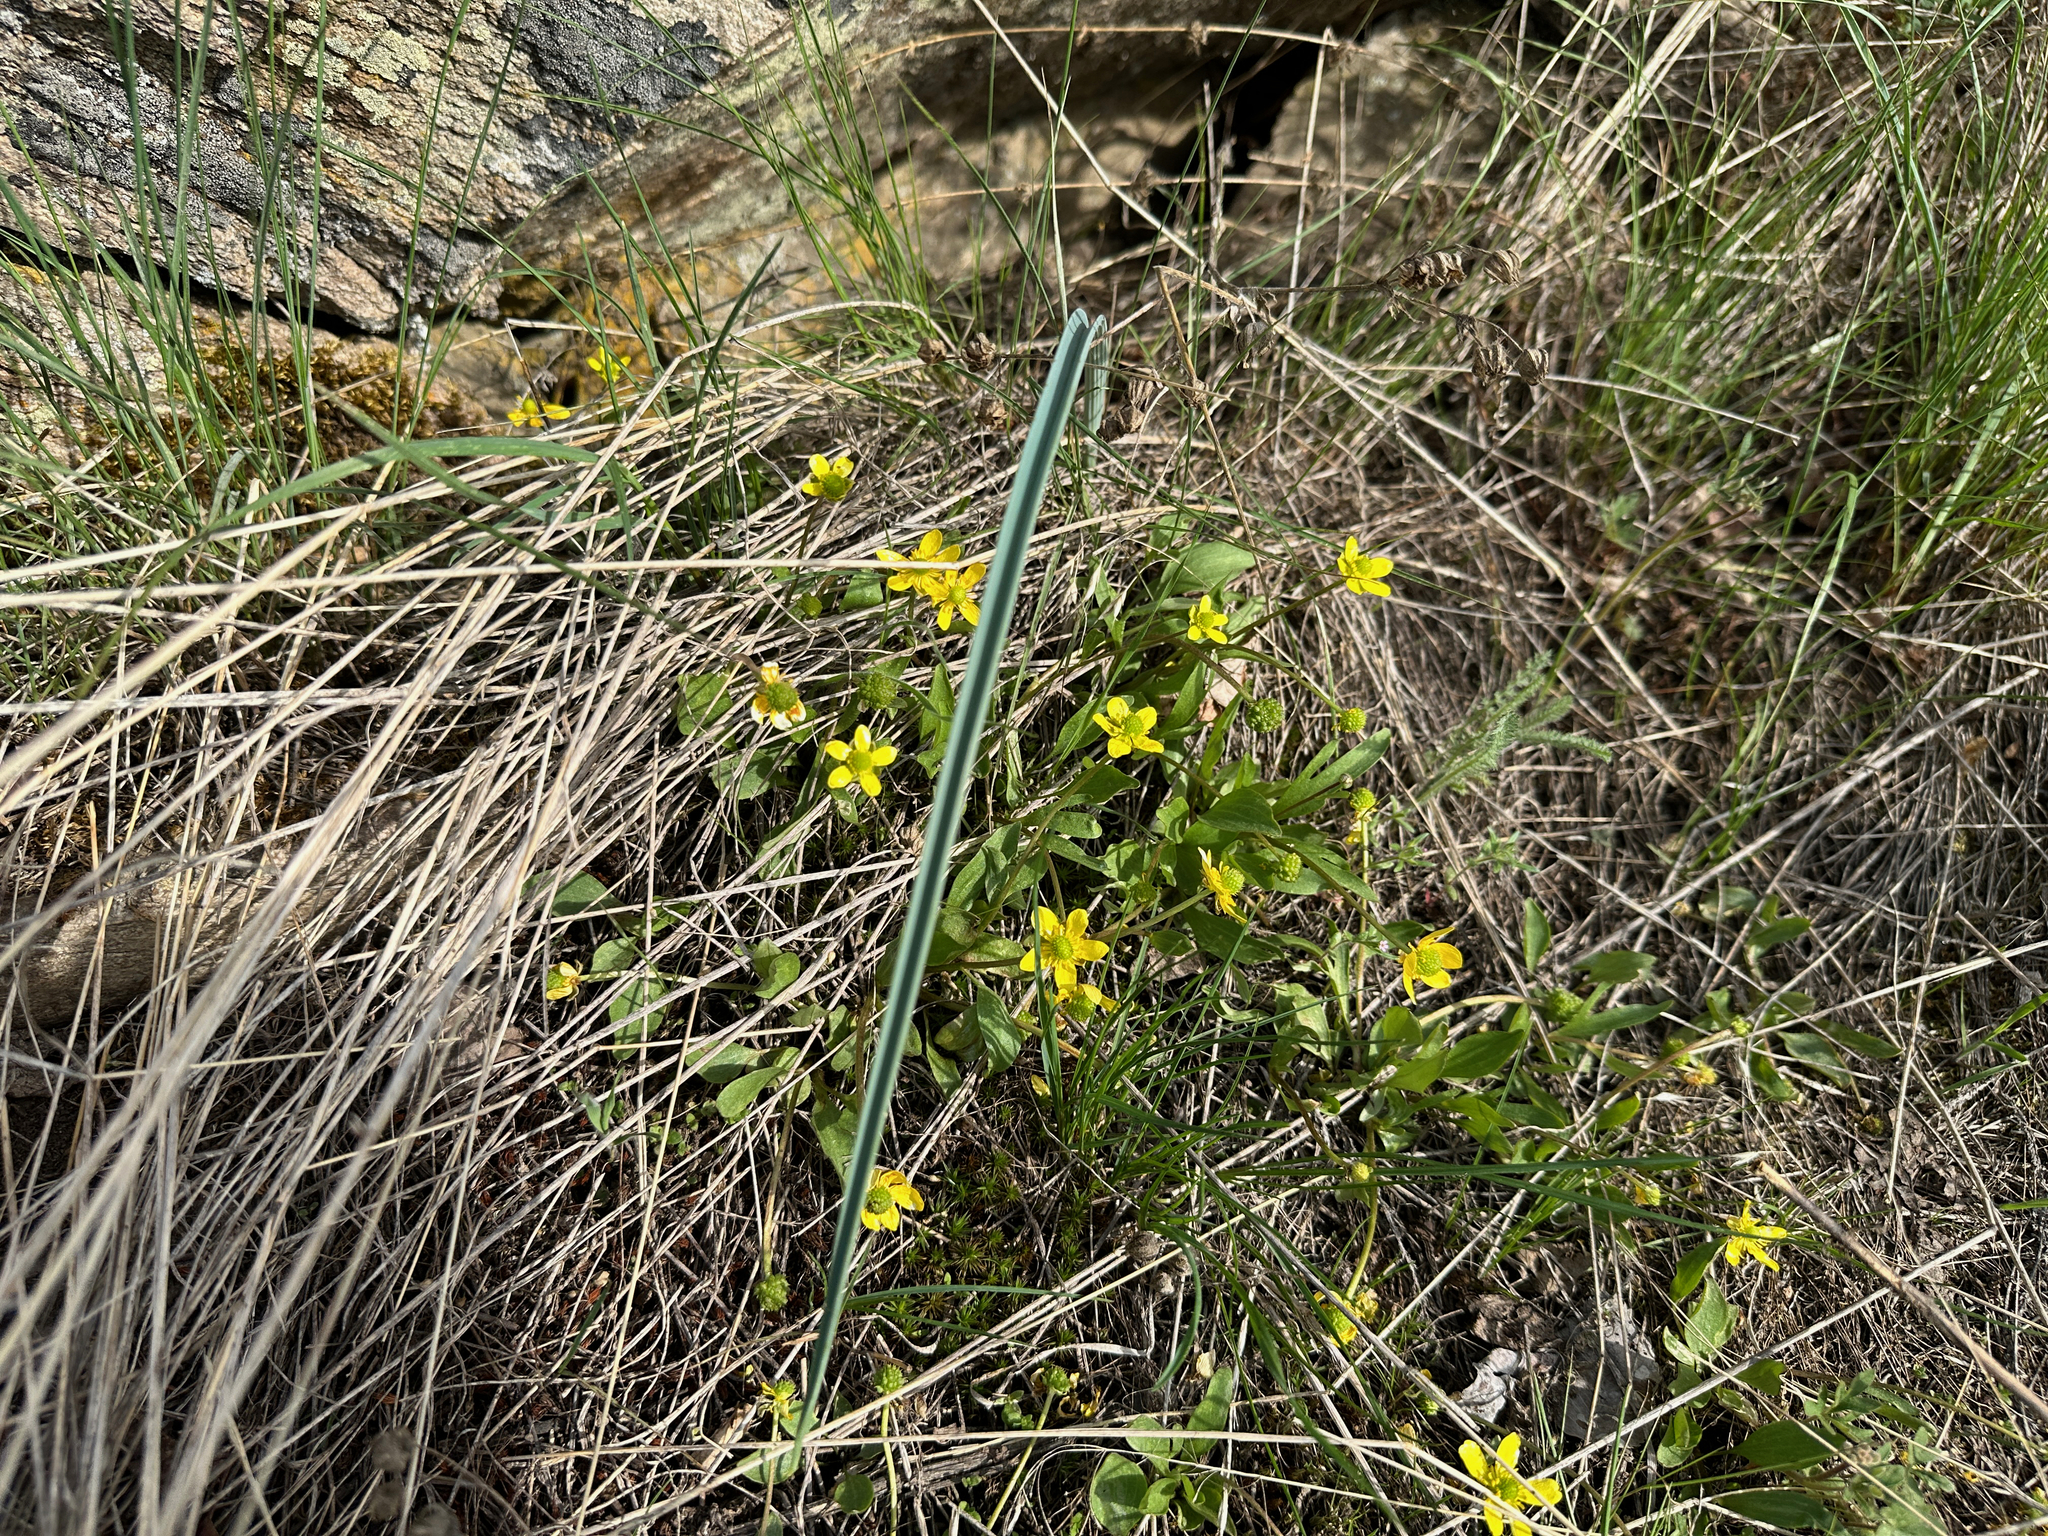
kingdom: Plantae
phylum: Tracheophyta
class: Magnoliopsida
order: Ranunculales
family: Ranunculaceae
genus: Ranunculus
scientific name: Ranunculus glaberrimus
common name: Sagebrush buttercup
